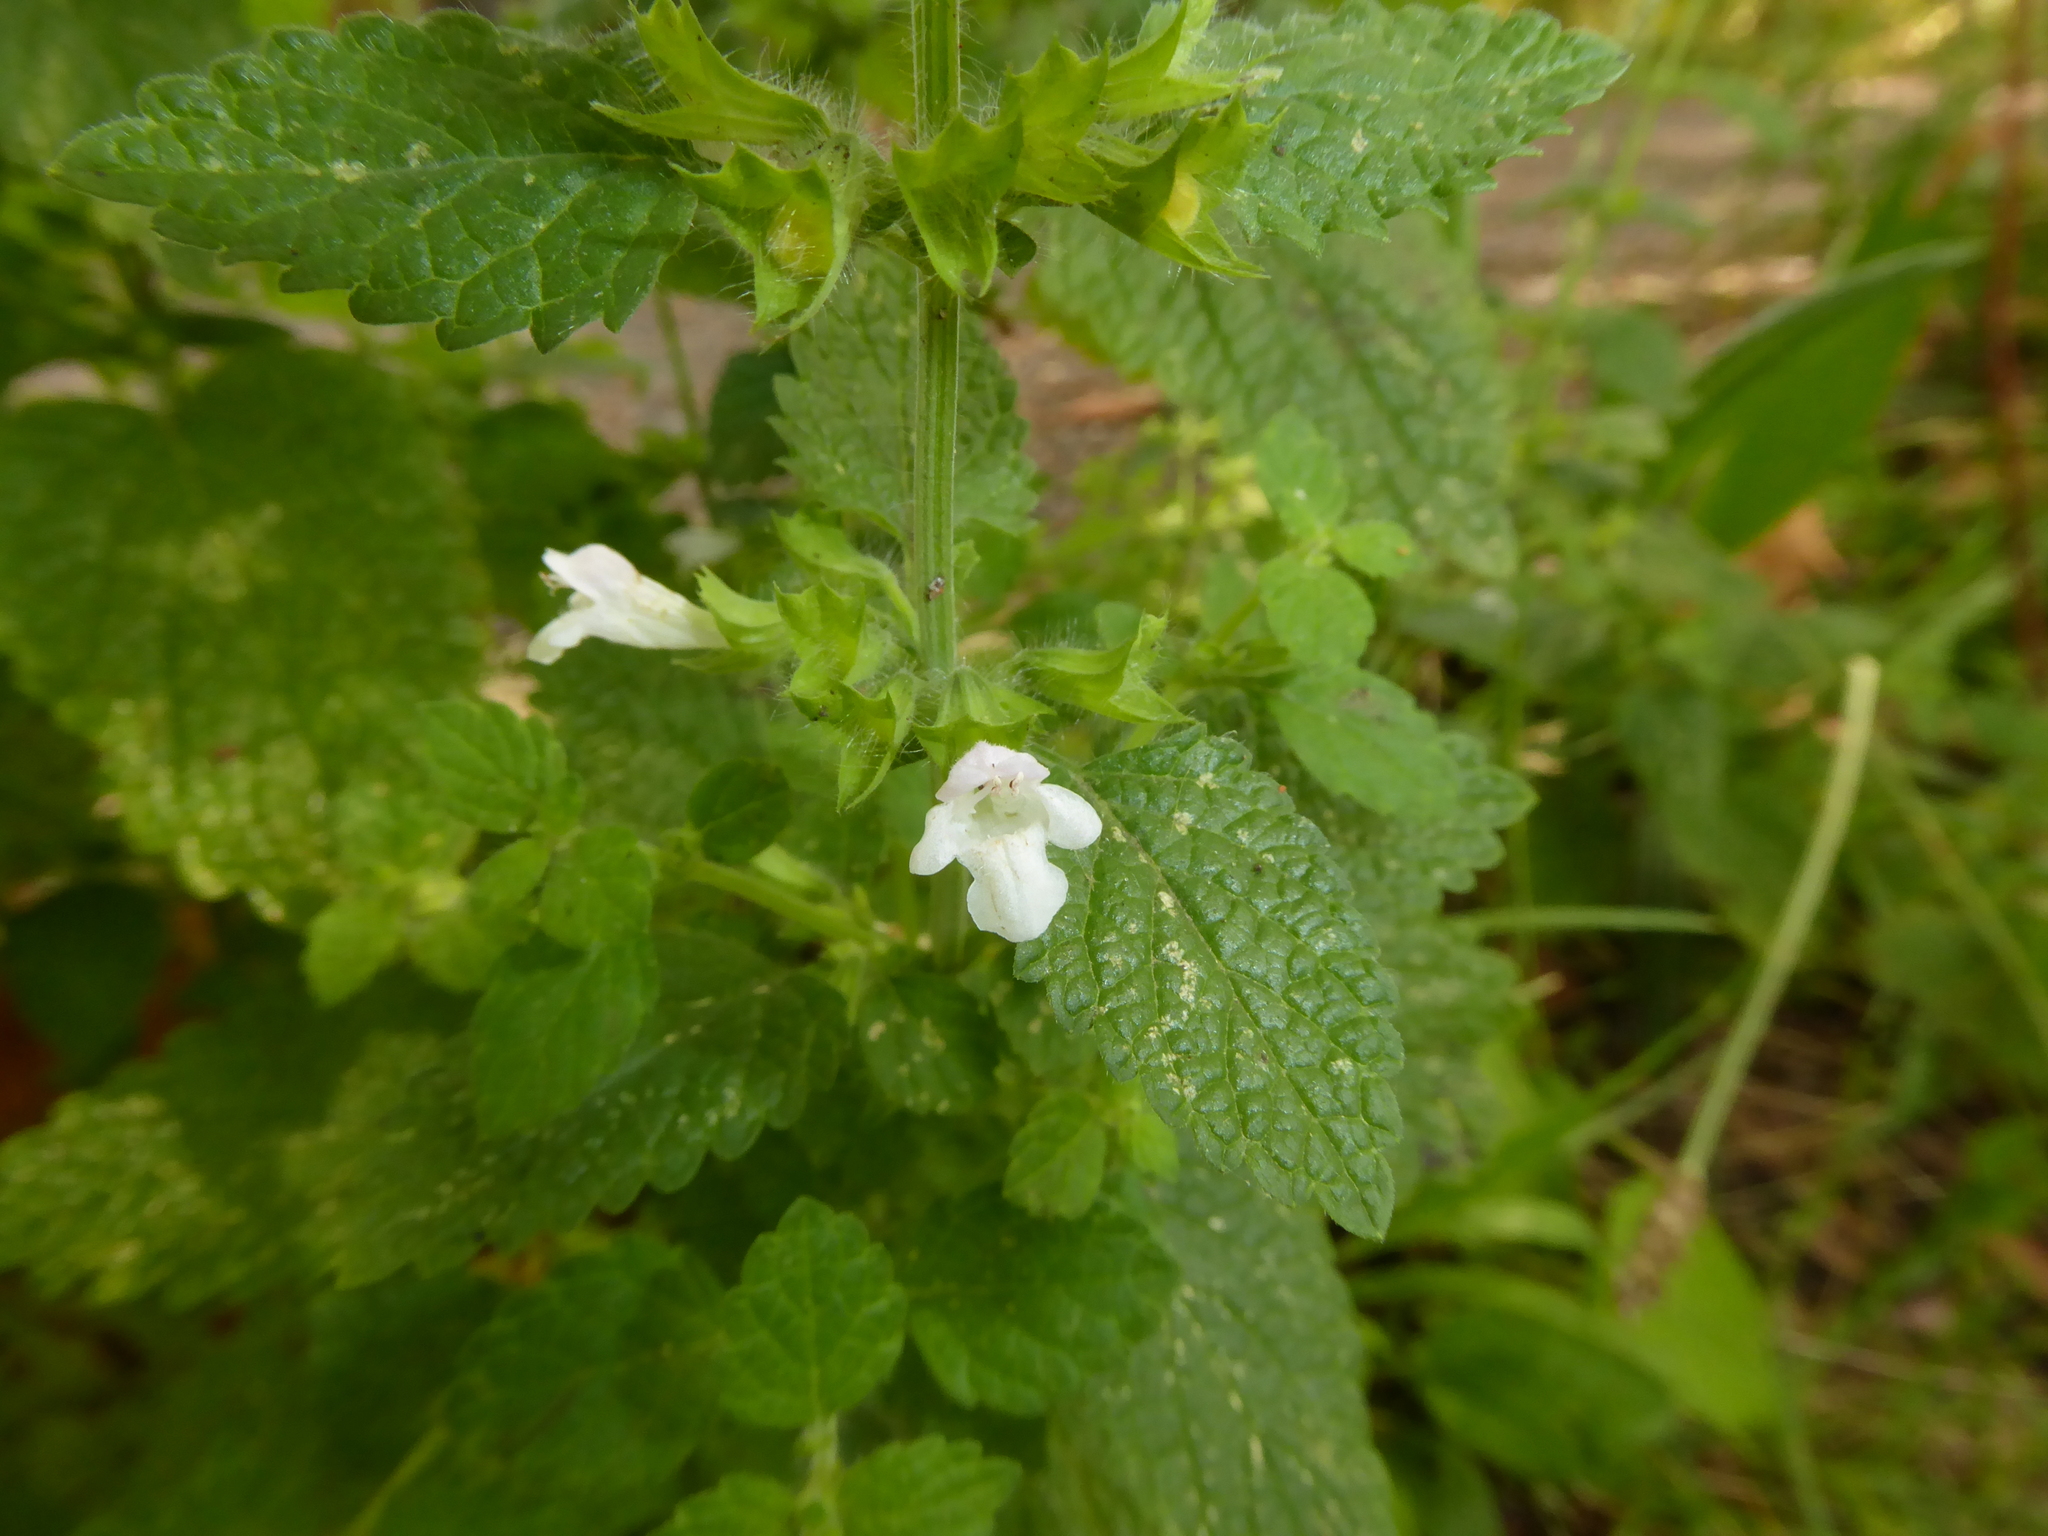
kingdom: Plantae
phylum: Tracheophyta
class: Magnoliopsida
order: Lamiales
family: Lamiaceae
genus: Melissa
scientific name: Melissa officinalis
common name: Balm
